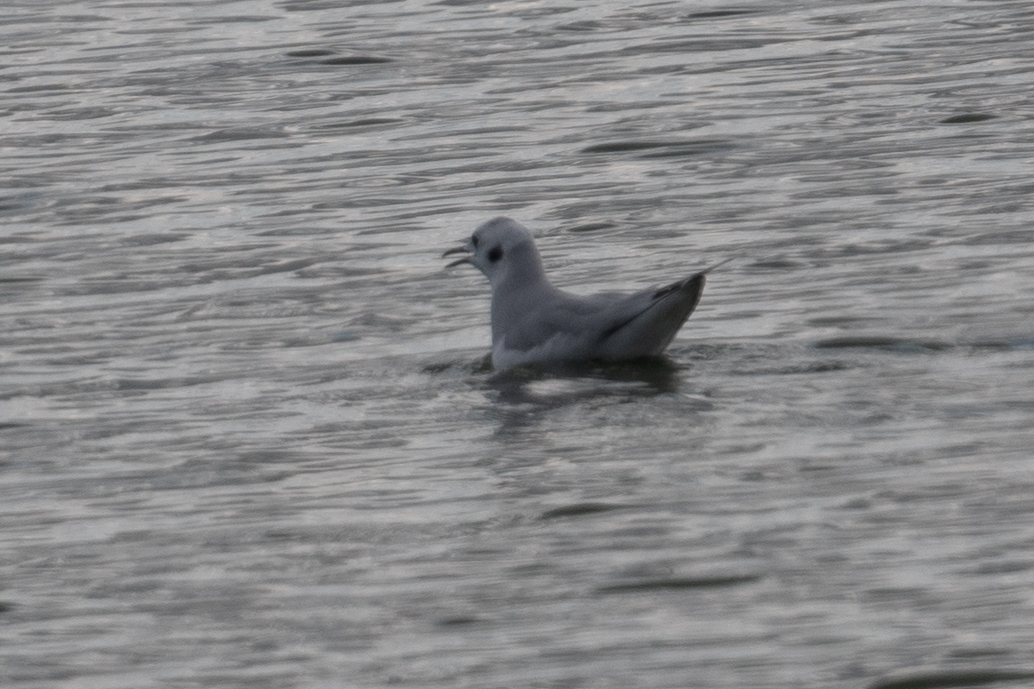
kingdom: Animalia
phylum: Chordata
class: Aves
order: Charadriiformes
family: Laridae
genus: Chroicocephalus
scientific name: Chroicocephalus philadelphia
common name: Bonaparte's gull
